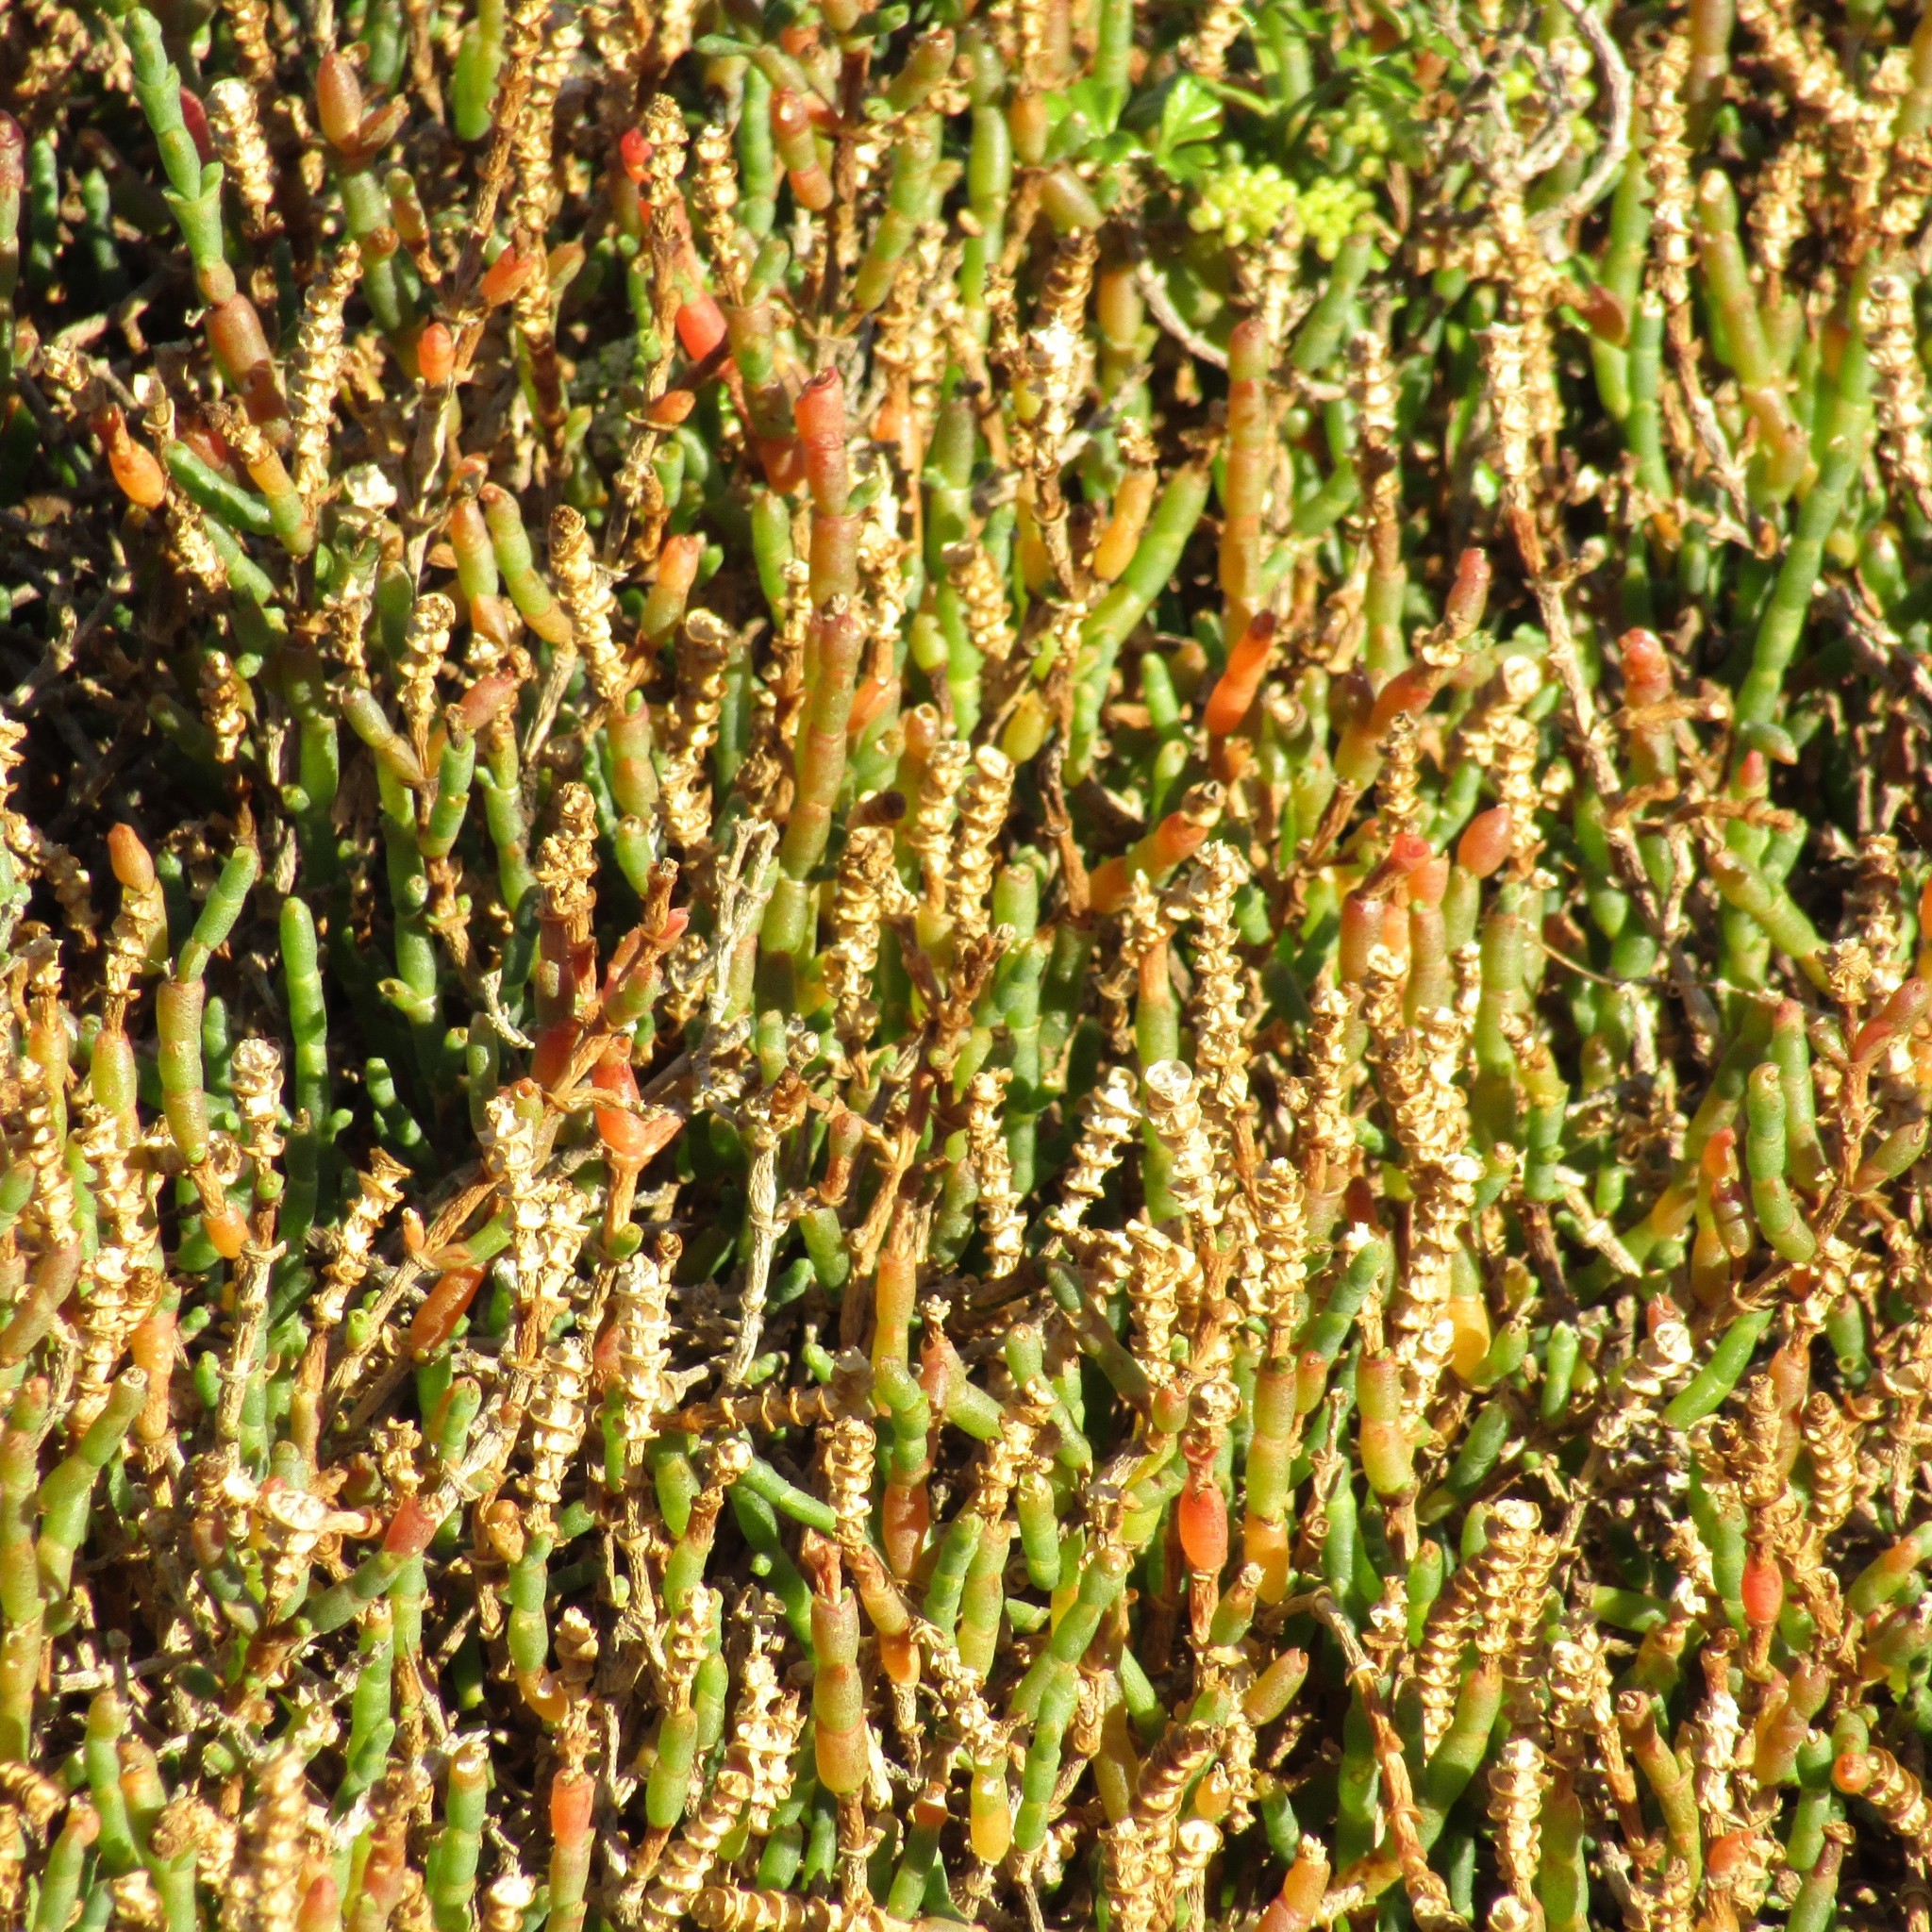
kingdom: Plantae
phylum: Tracheophyta
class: Magnoliopsida
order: Caryophyllales
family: Amaranthaceae
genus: Salicornia
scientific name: Salicornia quinqueflora
